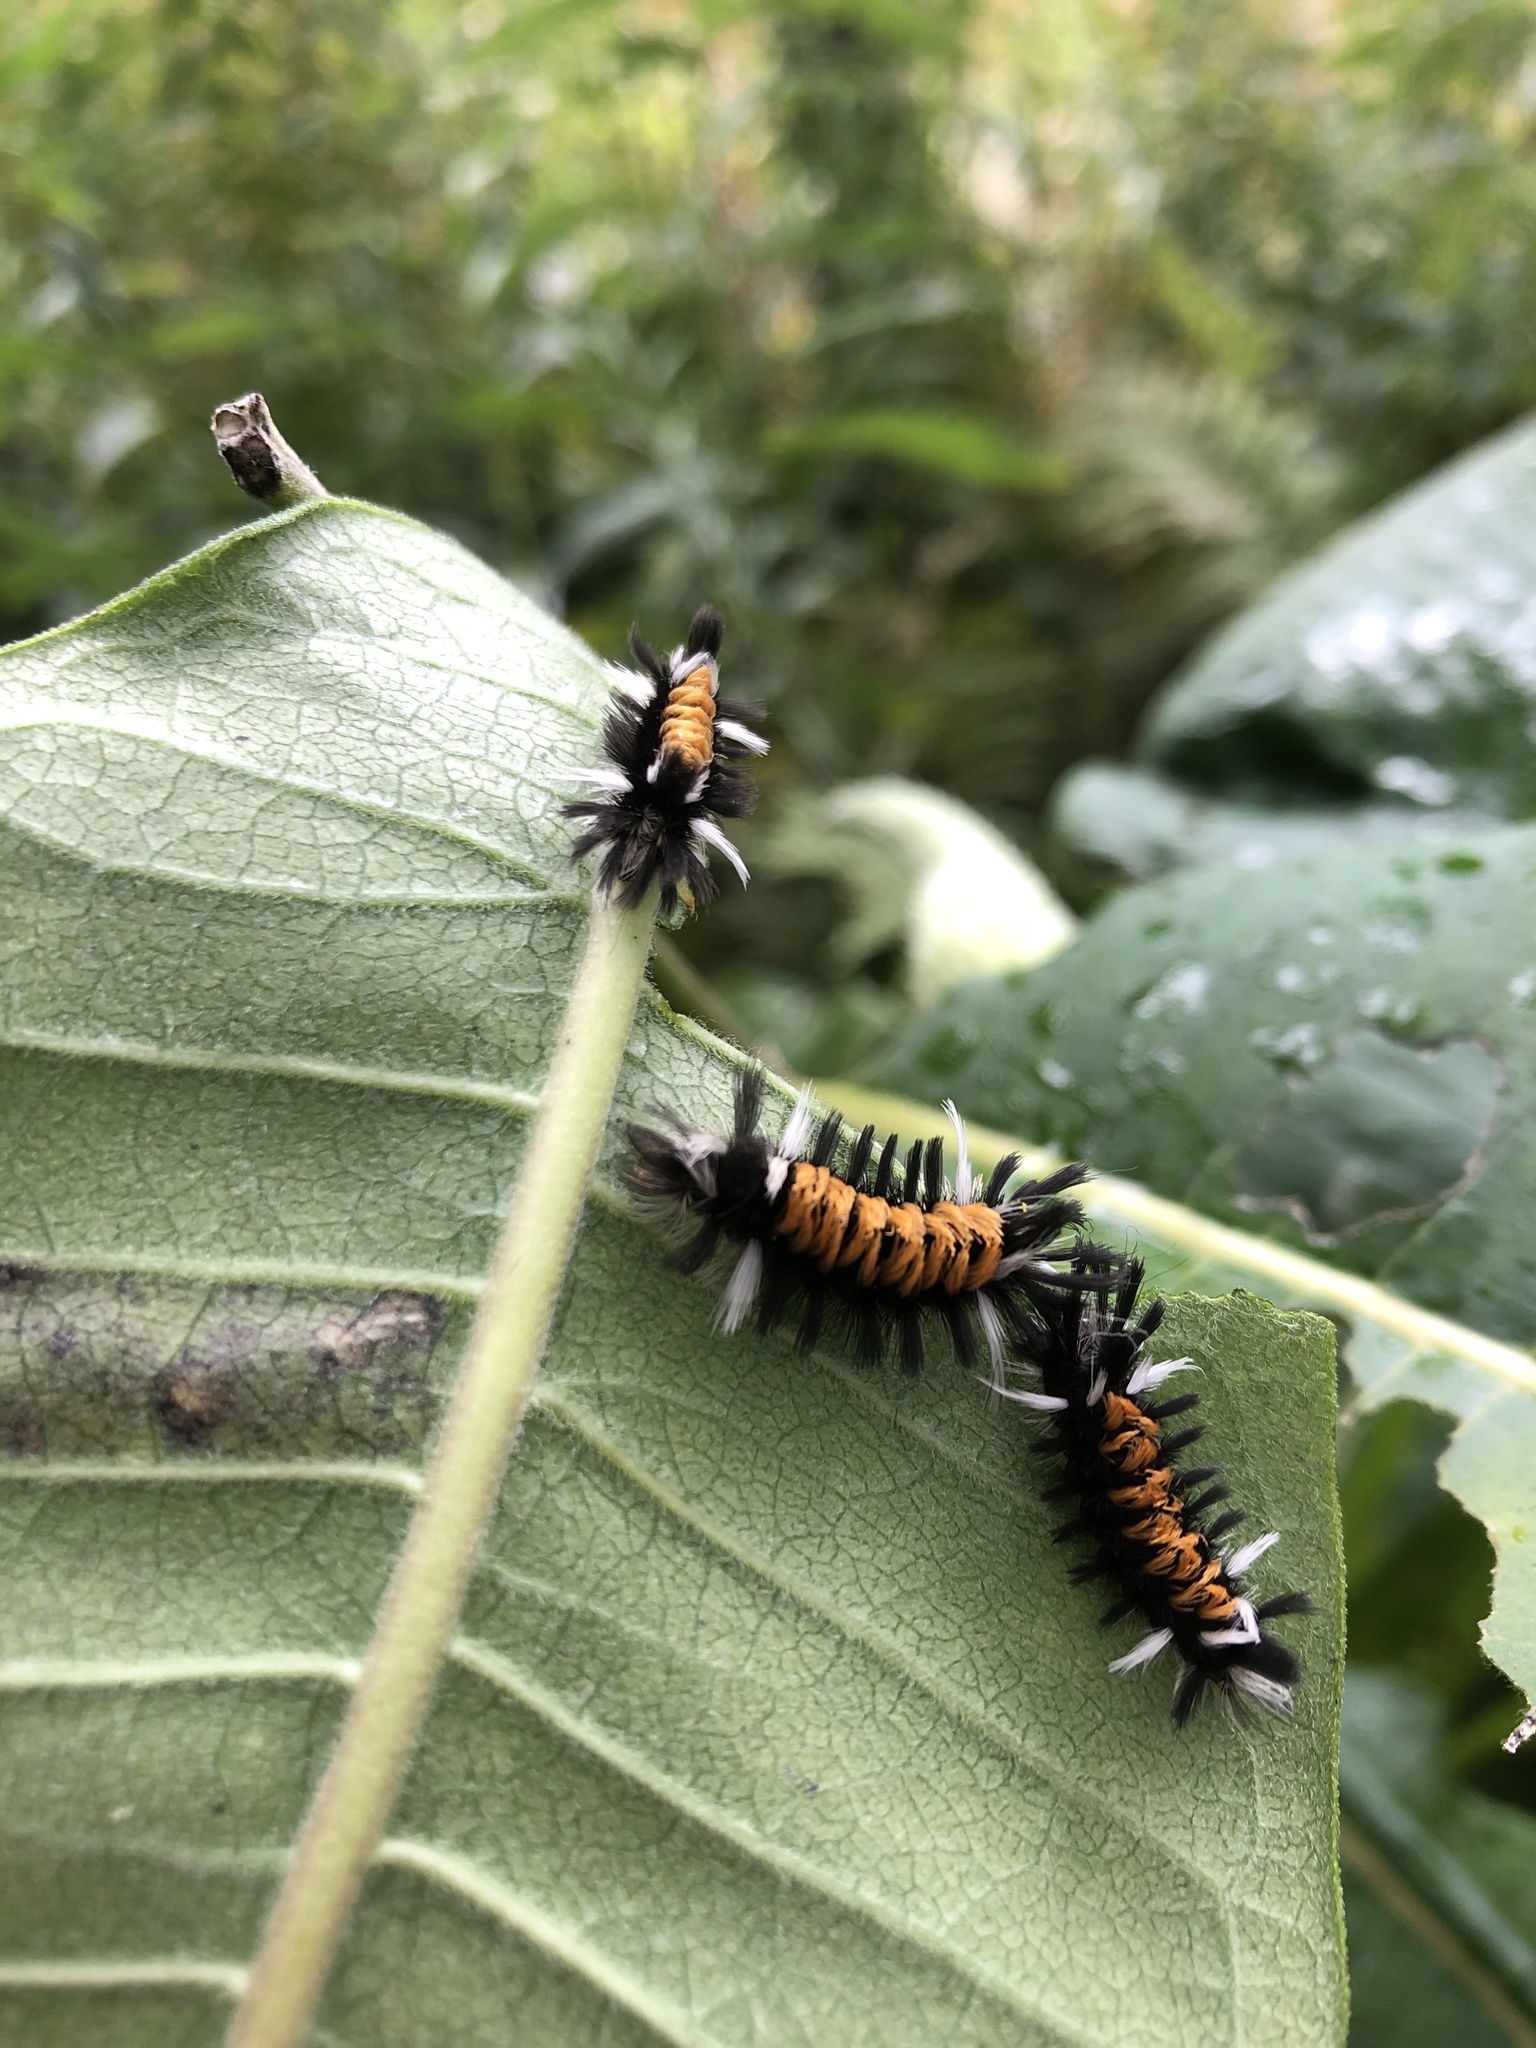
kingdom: Animalia
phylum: Arthropoda
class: Insecta
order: Lepidoptera
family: Erebidae
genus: Euchaetes
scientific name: Euchaetes egle
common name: Milkweed tussock moth
